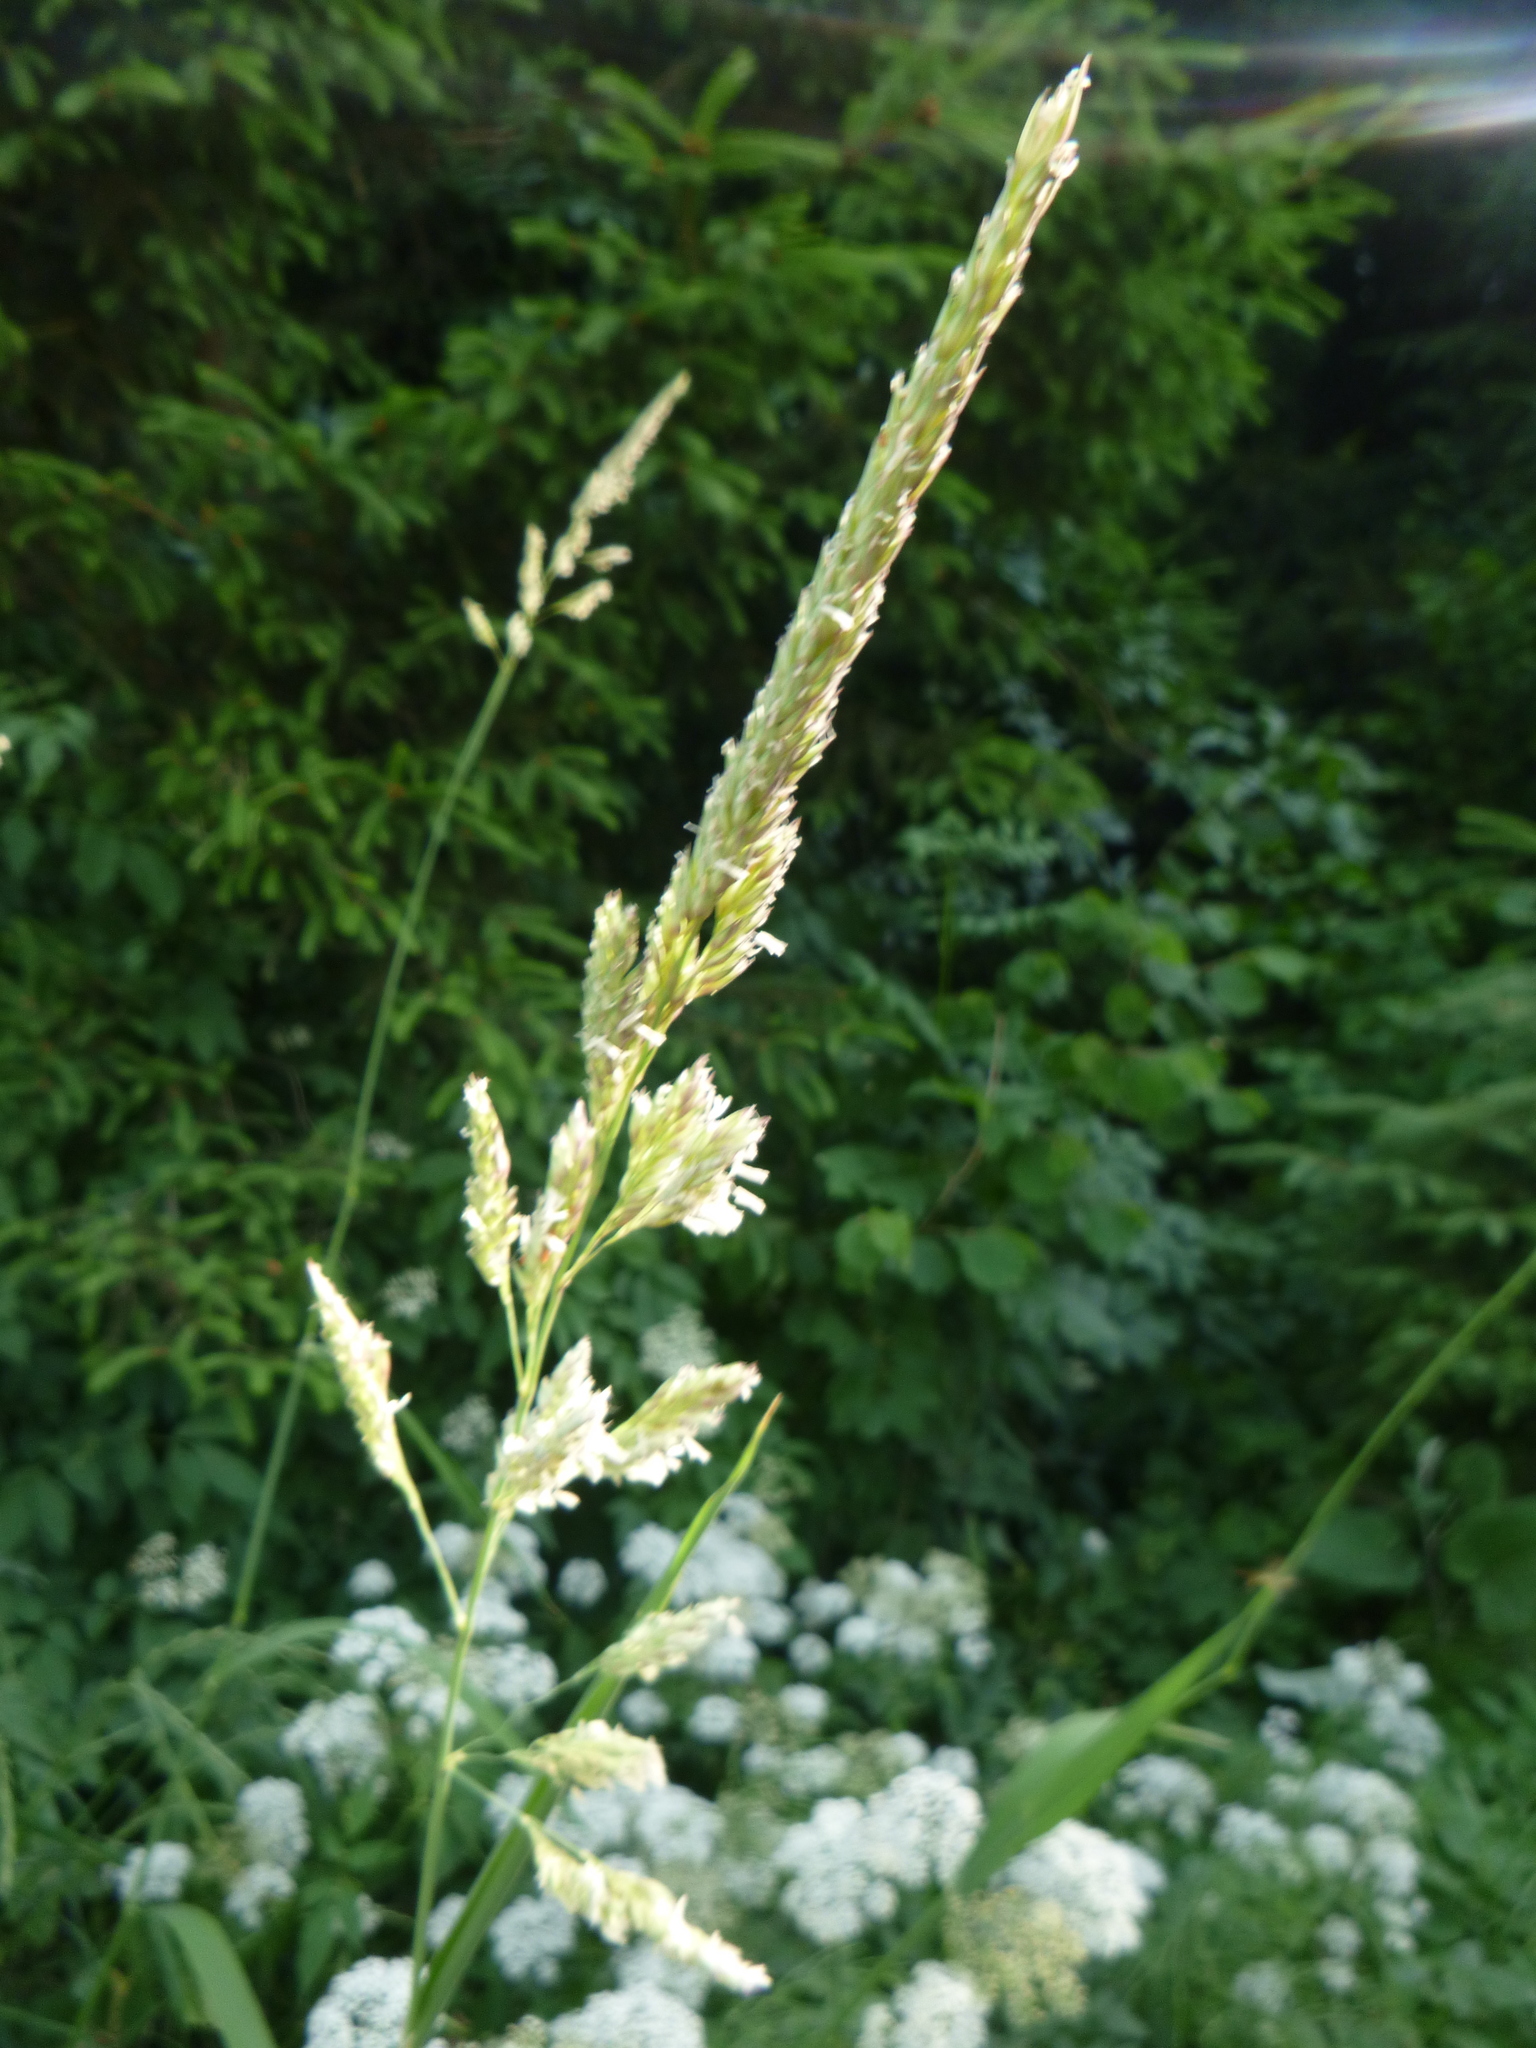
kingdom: Plantae
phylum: Tracheophyta
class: Liliopsida
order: Poales
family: Poaceae
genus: Phalaris
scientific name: Phalaris arundinacea
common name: Reed canary-grass
